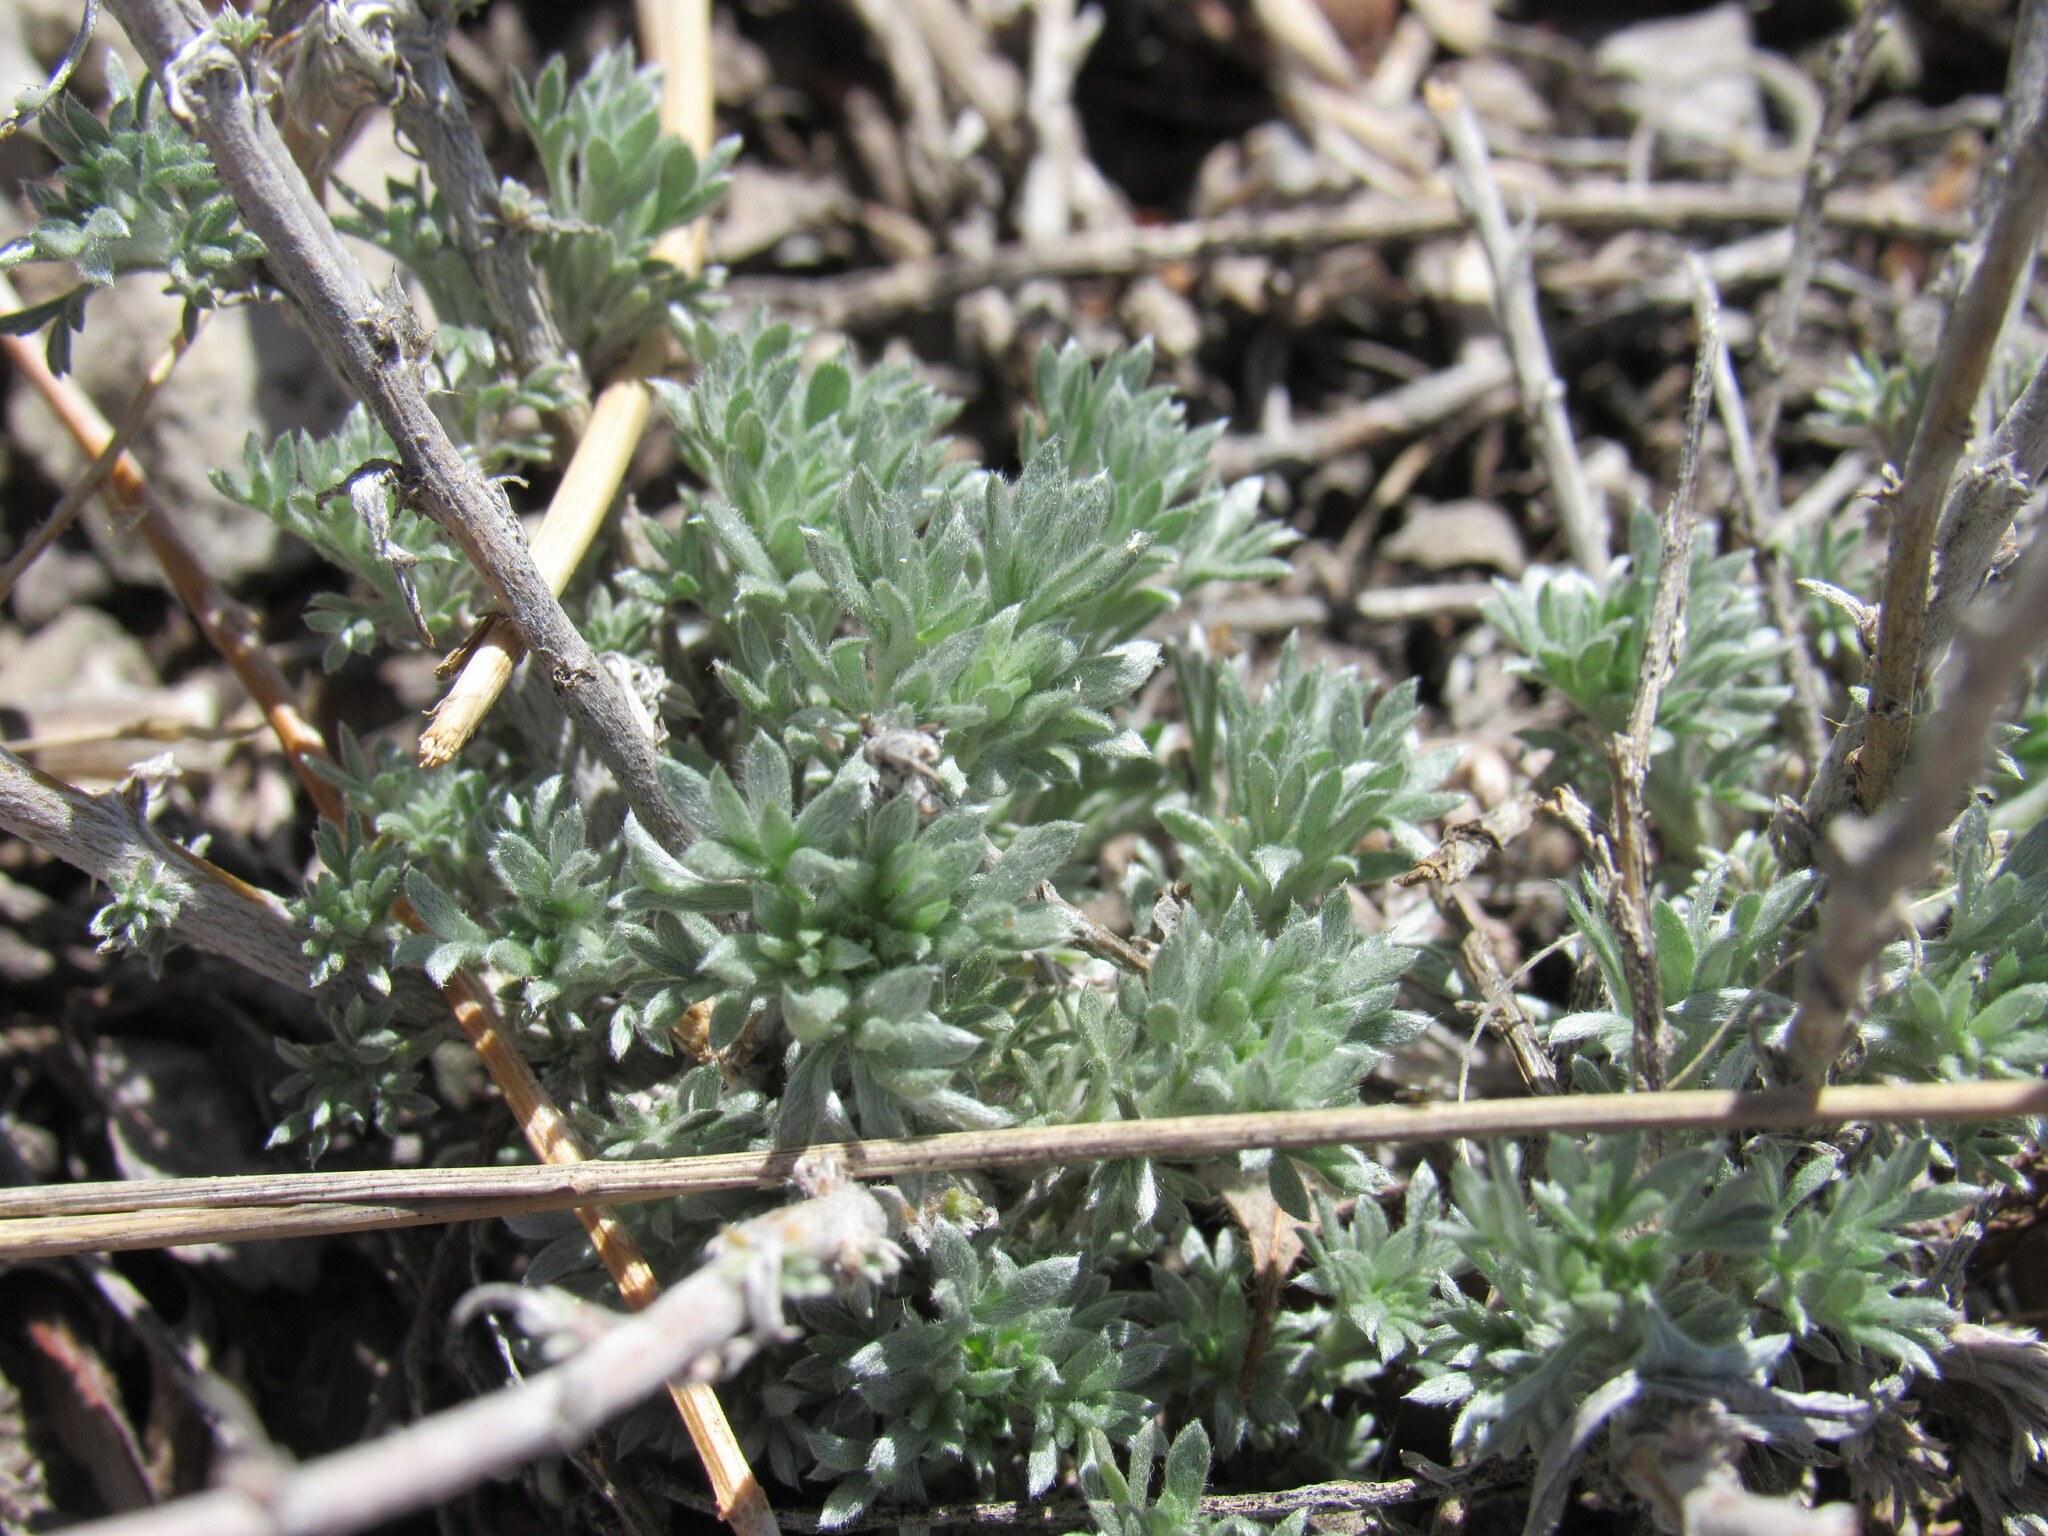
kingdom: Plantae
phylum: Tracheophyta
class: Magnoliopsida
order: Asterales
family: Asteraceae
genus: Artemisia
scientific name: Artemisia frigida
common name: Prairie sagewort
